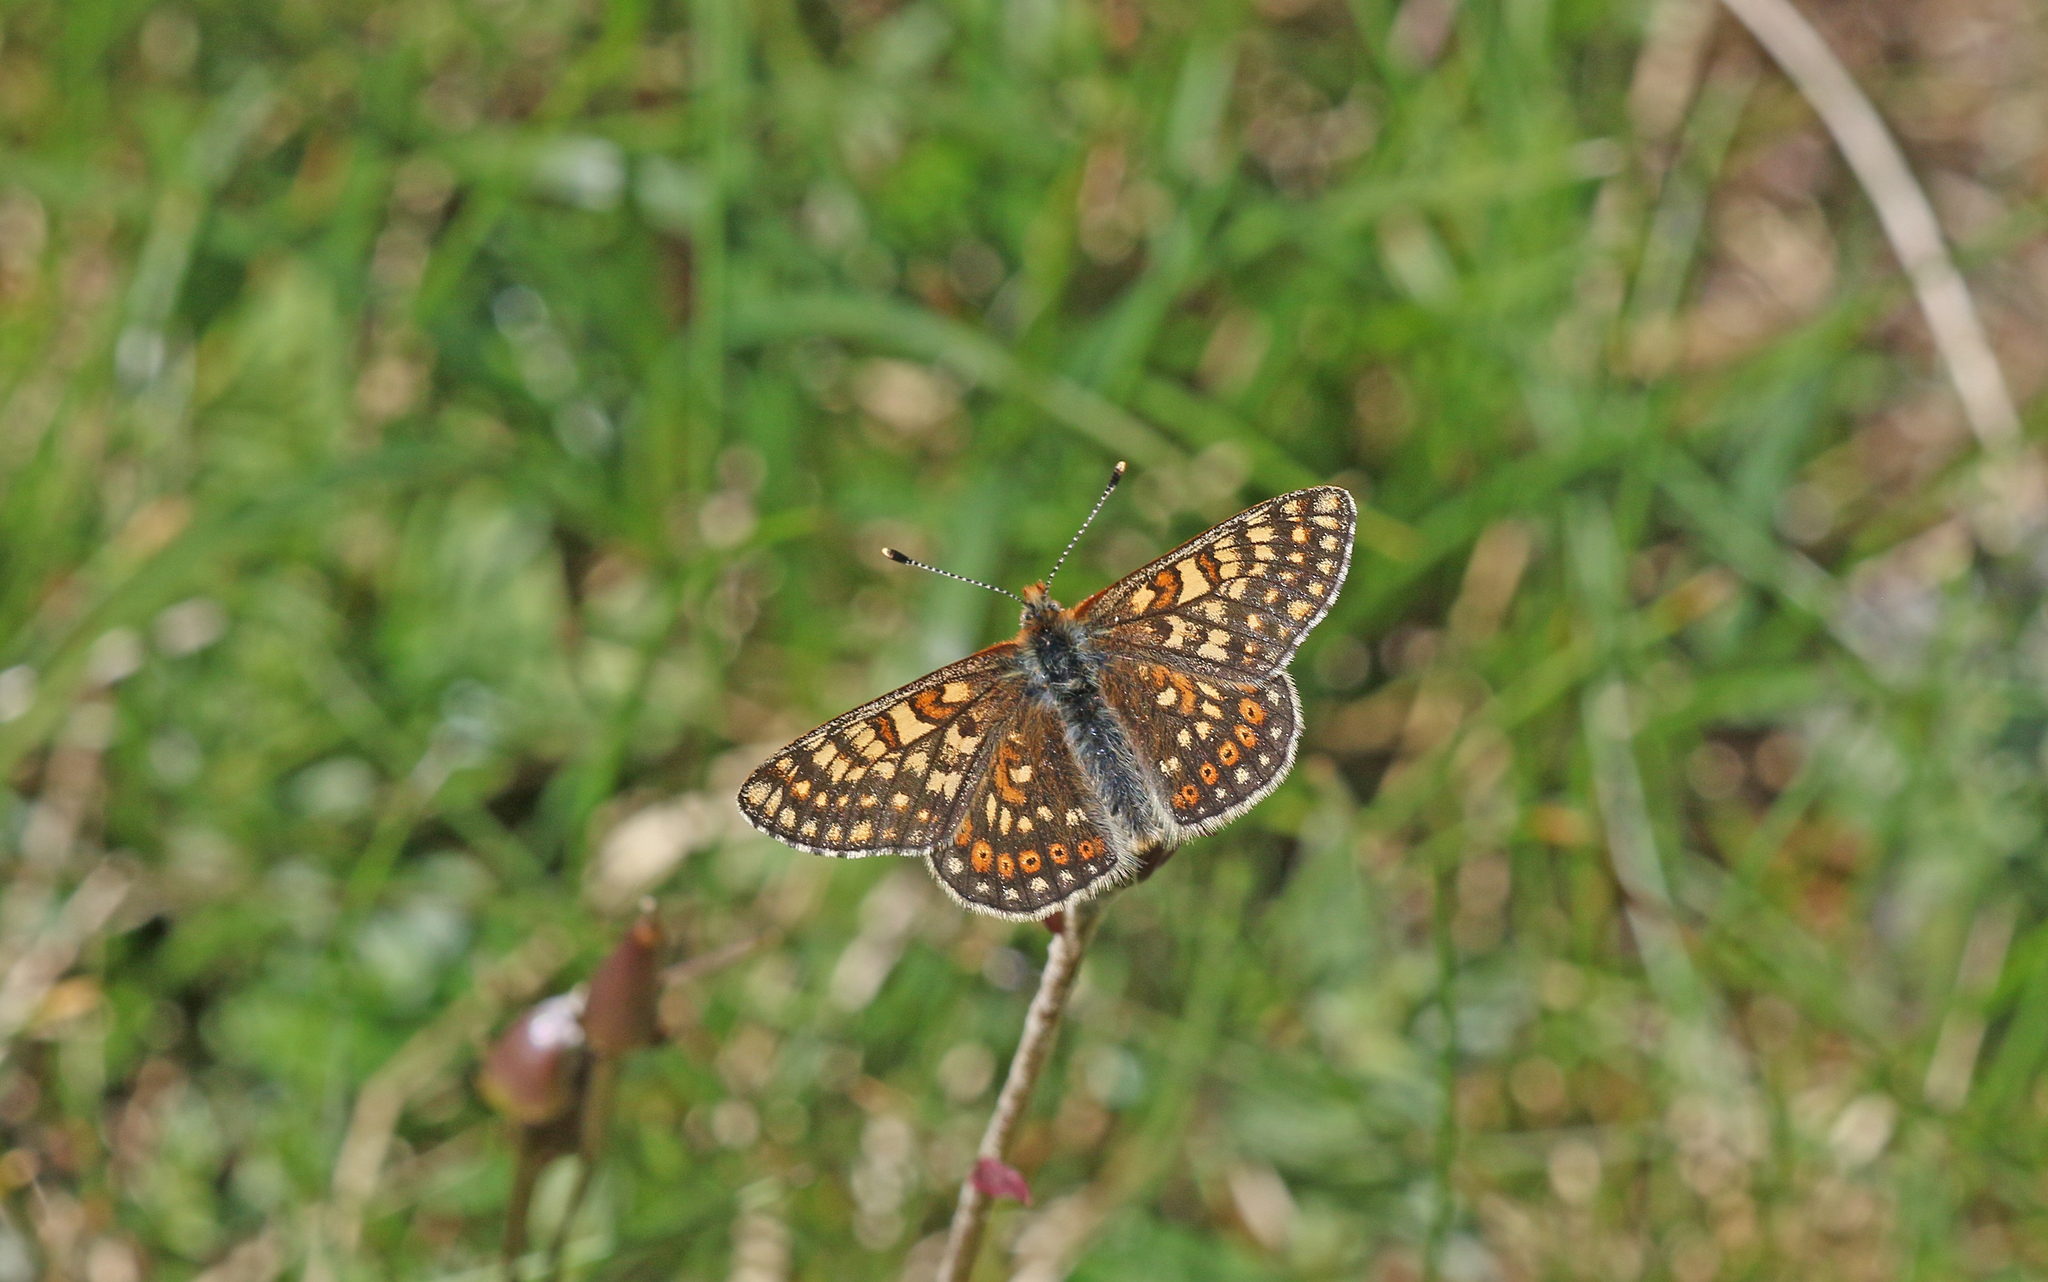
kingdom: Animalia
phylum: Arthropoda
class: Insecta
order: Lepidoptera
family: Nymphalidae
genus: Euphydryas
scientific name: Euphydryas aurinia
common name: Marsh fritillary
